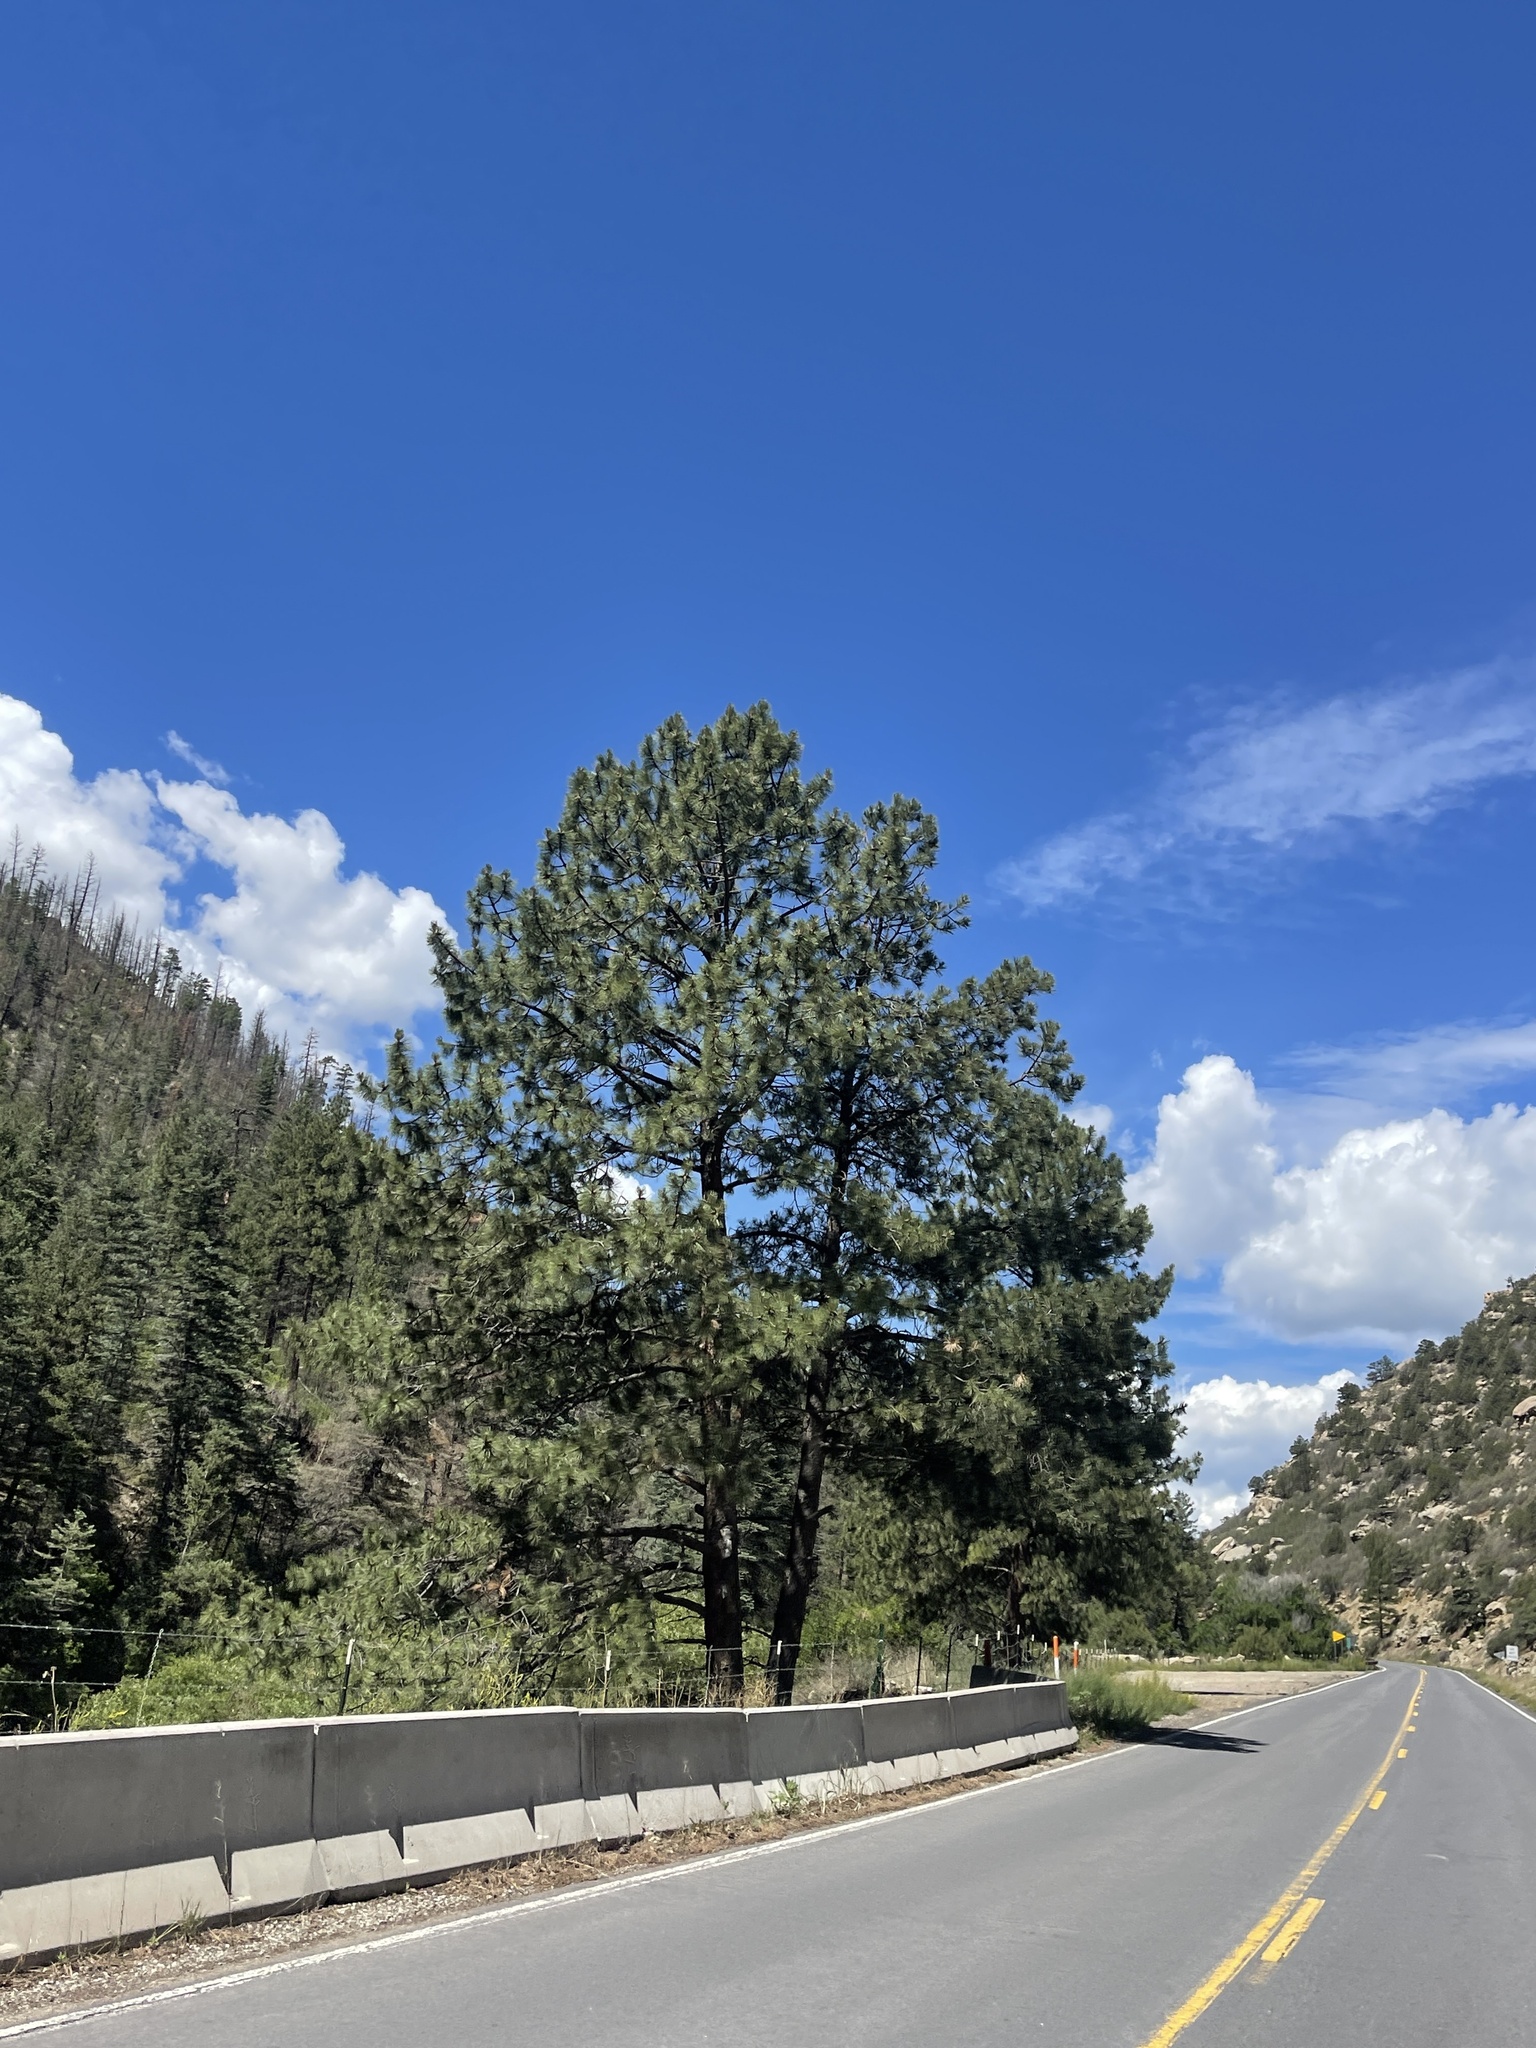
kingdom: Plantae
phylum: Tracheophyta
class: Pinopsida
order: Pinales
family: Pinaceae
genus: Pinus
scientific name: Pinus ponderosa
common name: Western yellow-pine
